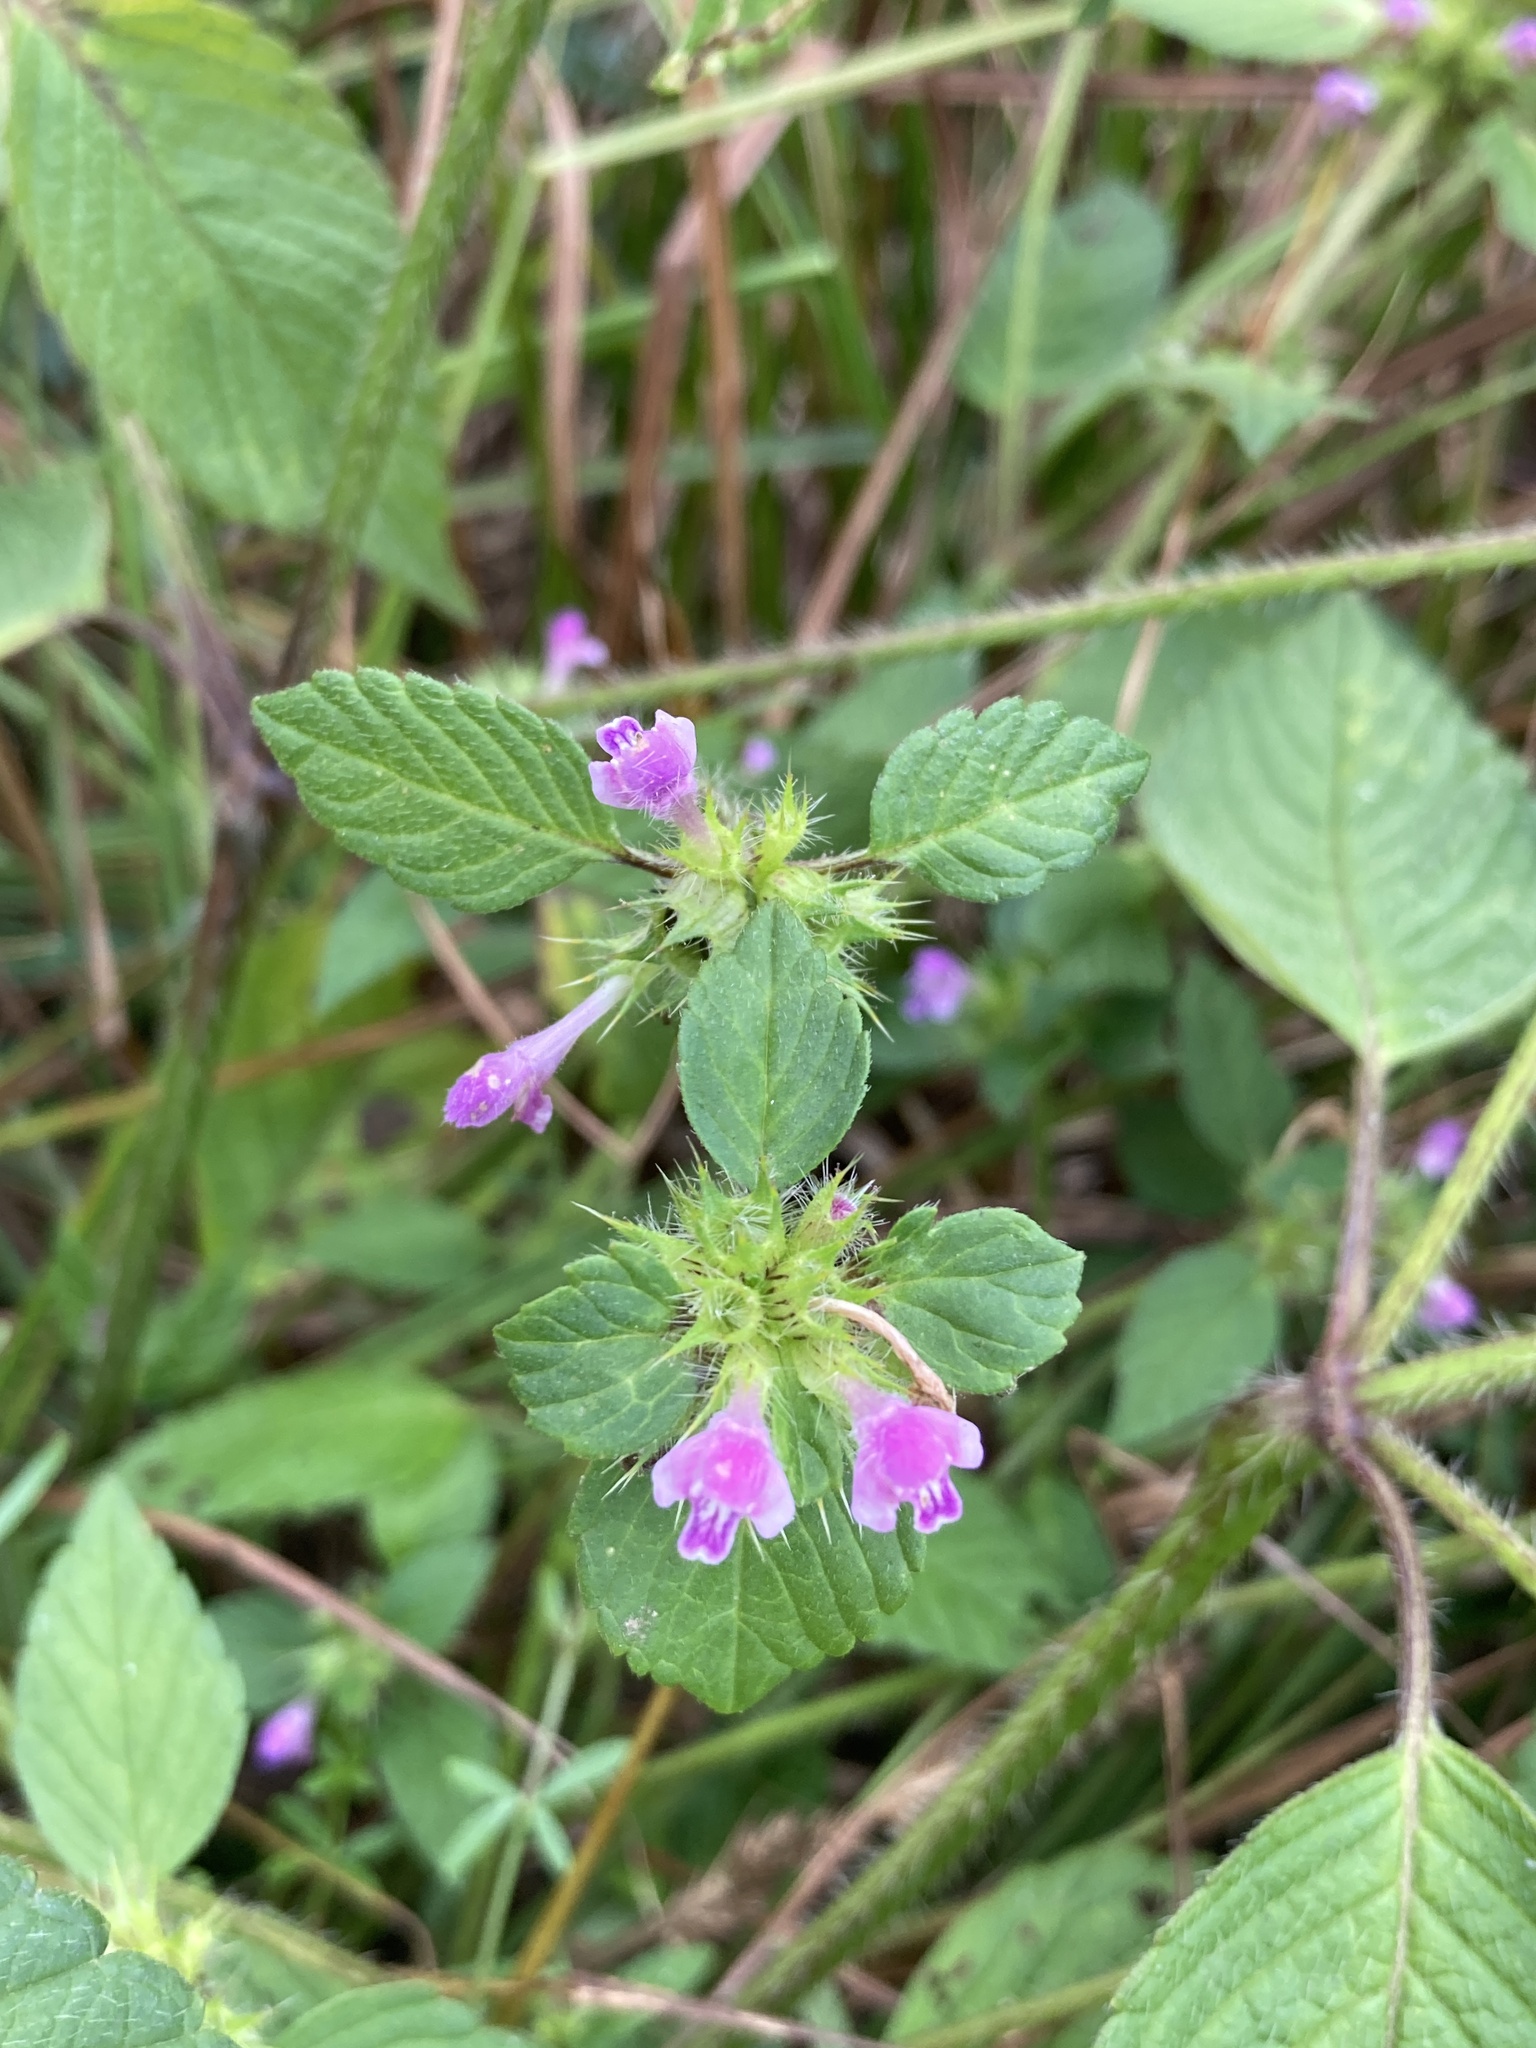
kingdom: Plantae
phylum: Tracheophyta
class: Magnoliopsida
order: Lamiales
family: Lamiaceae
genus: Galeopsis
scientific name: Galeopsis bifida
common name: Bifid hemp-nettle
